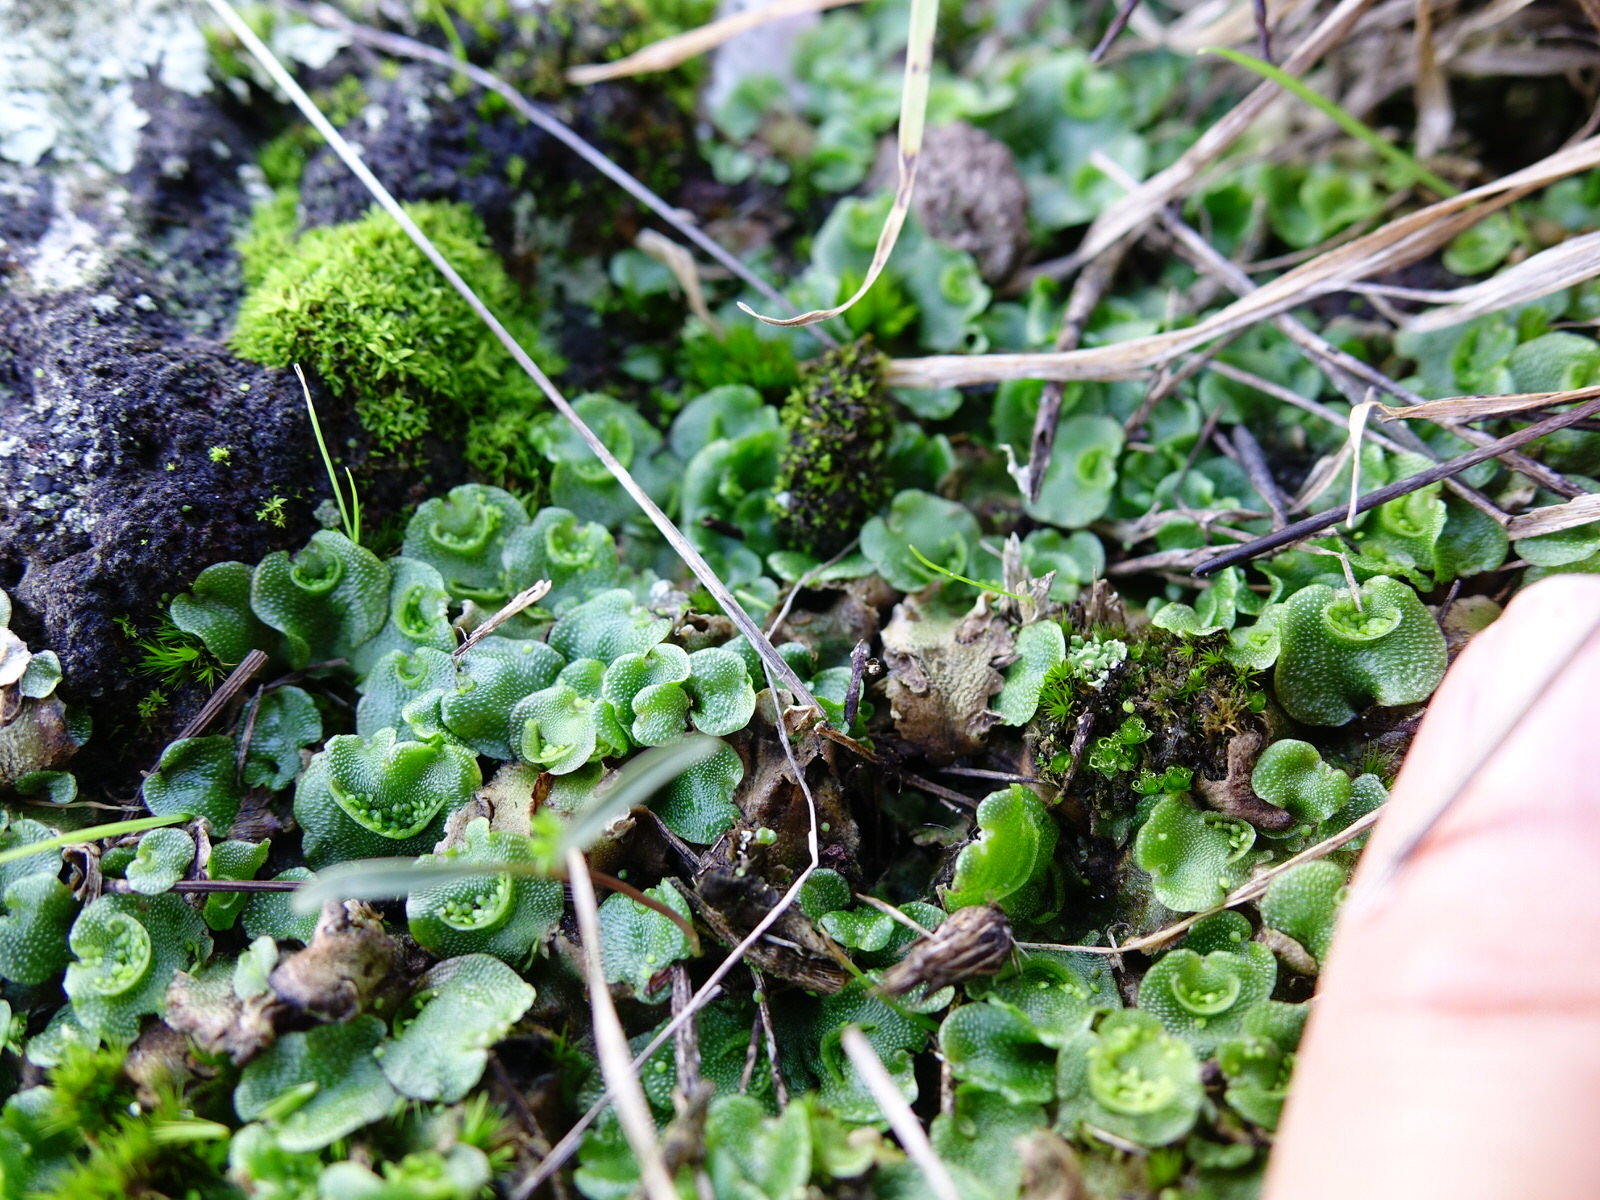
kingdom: Plantae
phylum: Marchantiophyta
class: Marchantiopsida
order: Lunulariales
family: Lunulariaceae
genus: Lunularia
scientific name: Lunularia cruciata
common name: Crescent-cup liverwort
